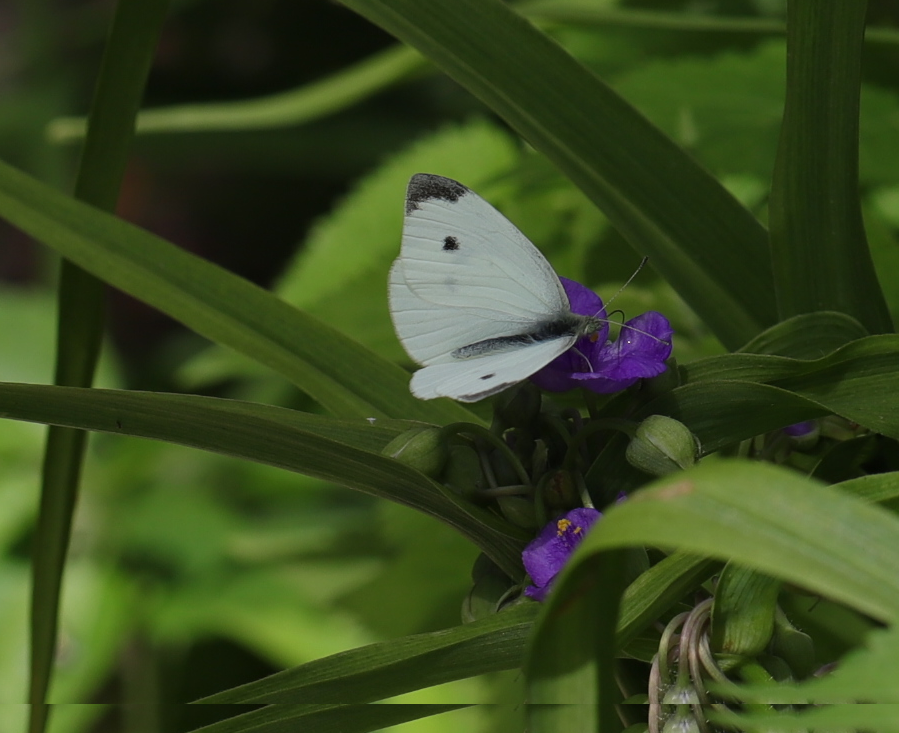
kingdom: Animalia
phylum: Arthropoda
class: Insecta
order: Lepidoptera
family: Pieridae
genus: Pieris
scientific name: Pieris rapae
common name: Small white
